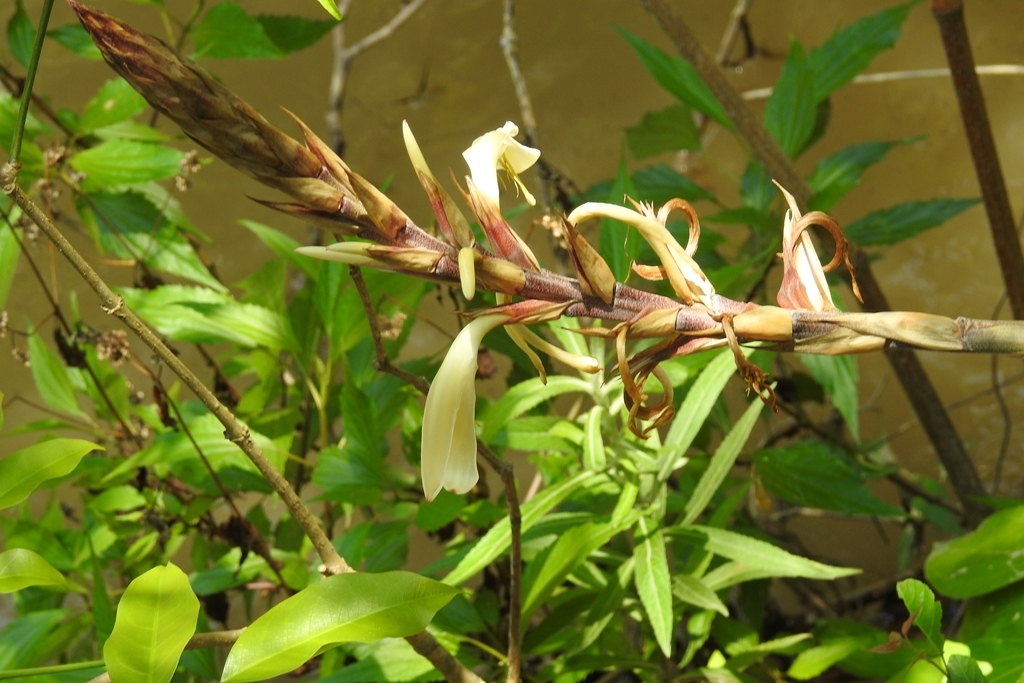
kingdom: Plantae
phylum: Tracheophyta
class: Liliopsida
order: Poales
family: Bromeliaceae
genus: Pitcairnia
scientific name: Pitcairnia recurvata
